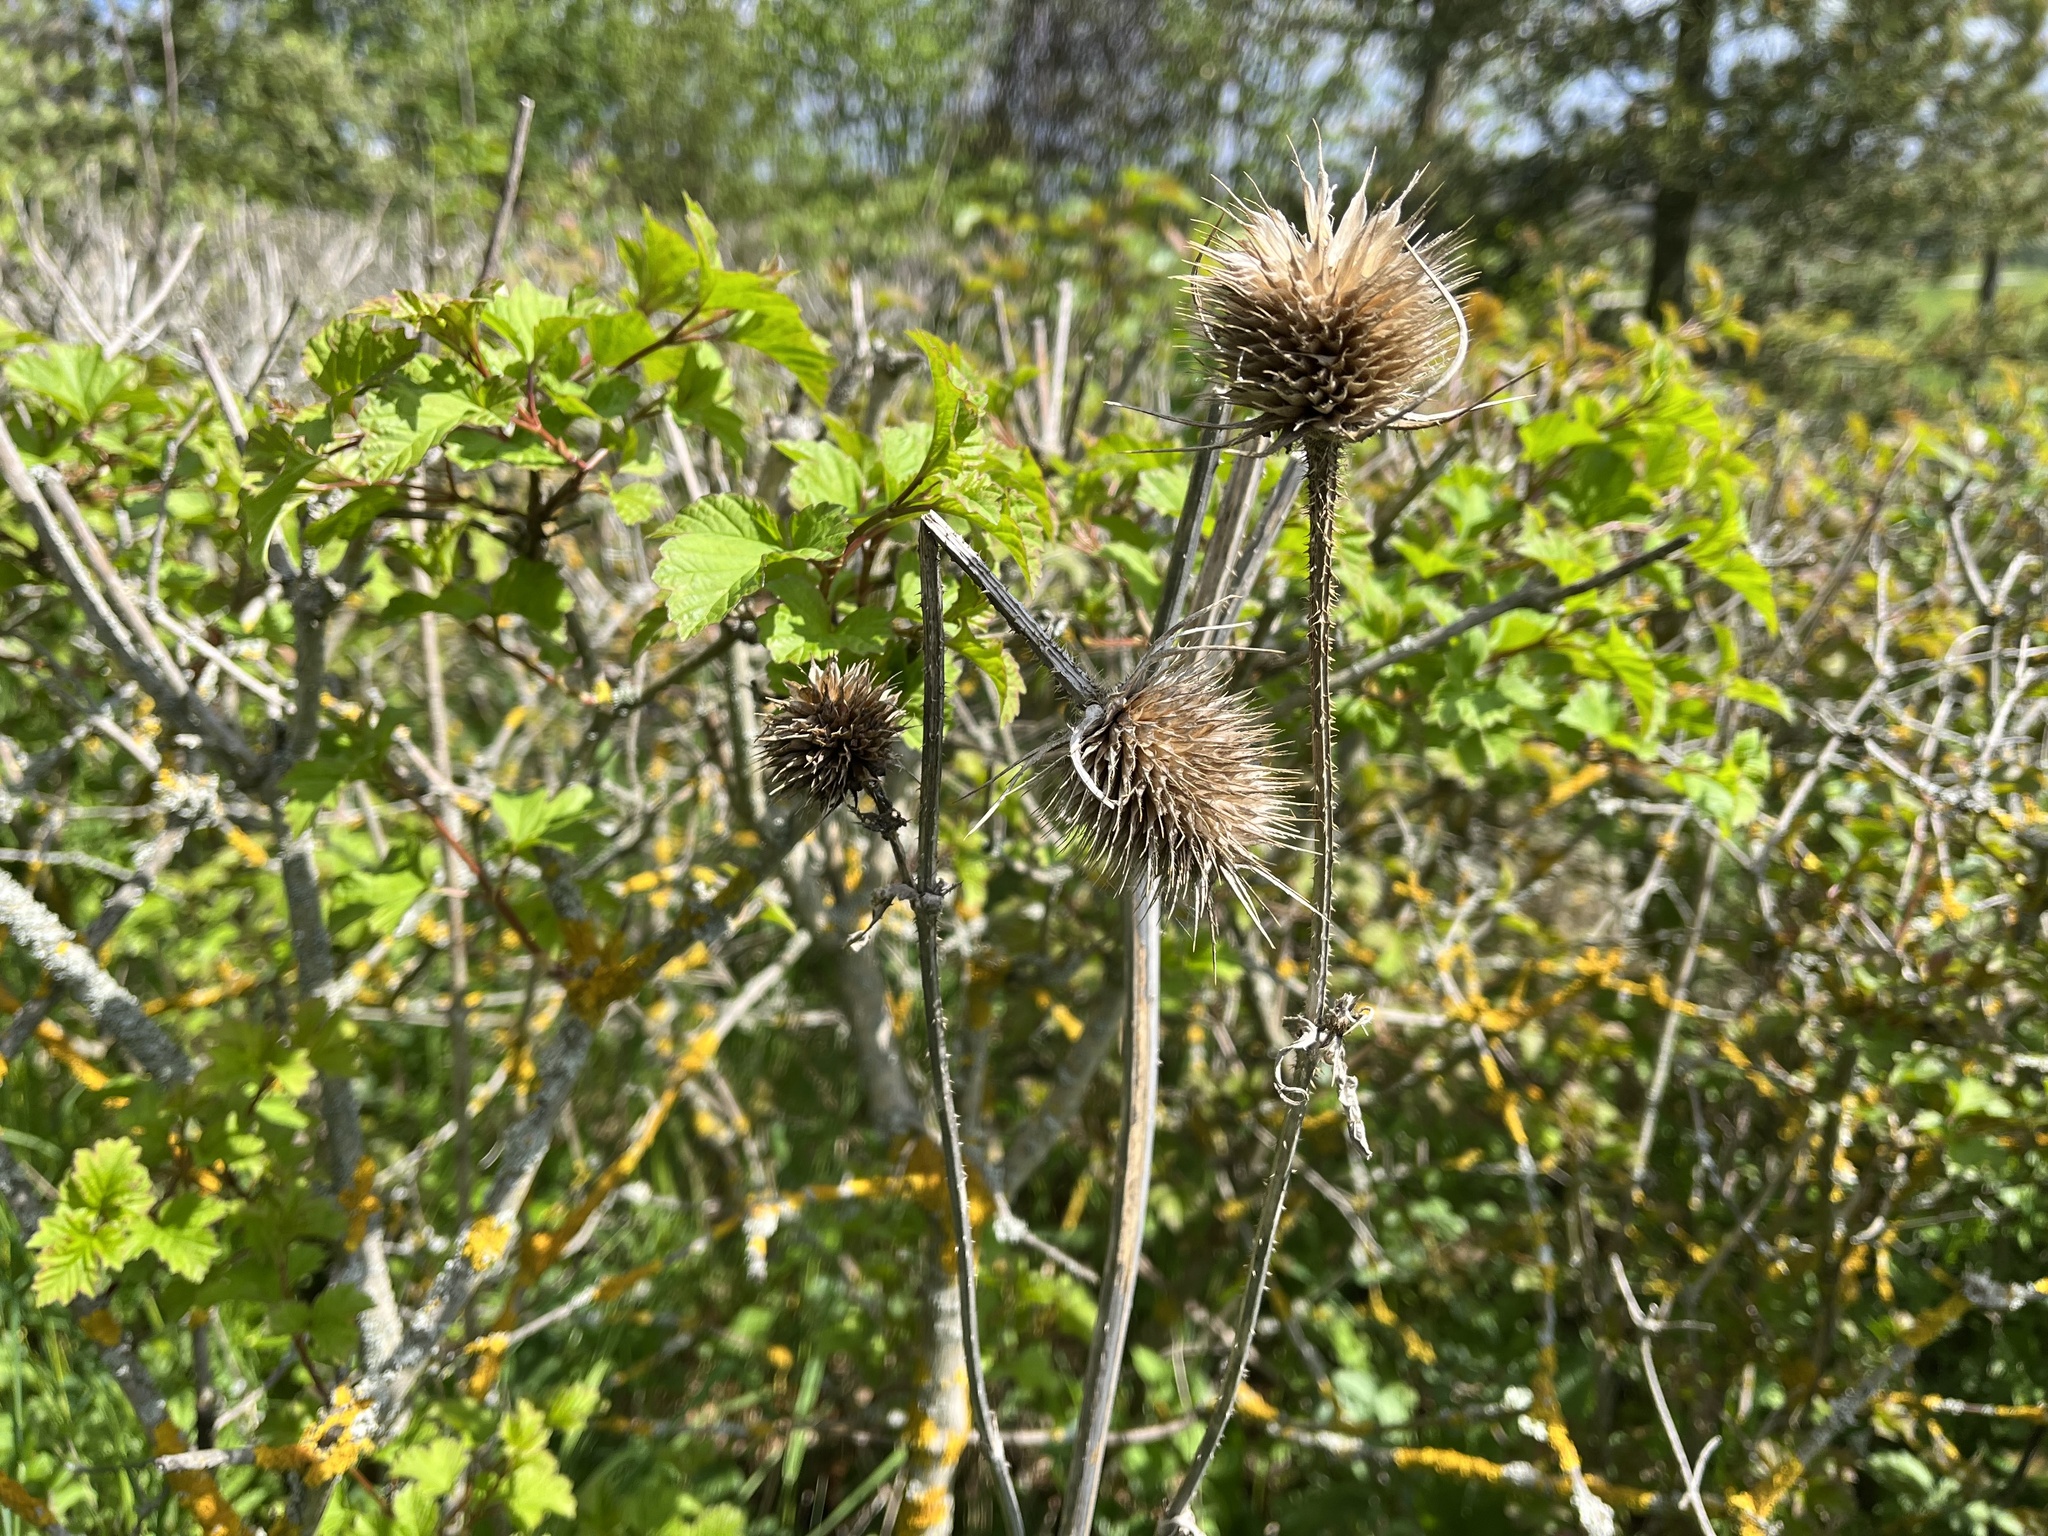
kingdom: Plantae
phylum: Tracheophyta
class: Magnoliopsida
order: Dipsacales
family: Caprifoliaceae
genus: Dipsacus
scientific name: Dipsacus fullonum
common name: Teasel
